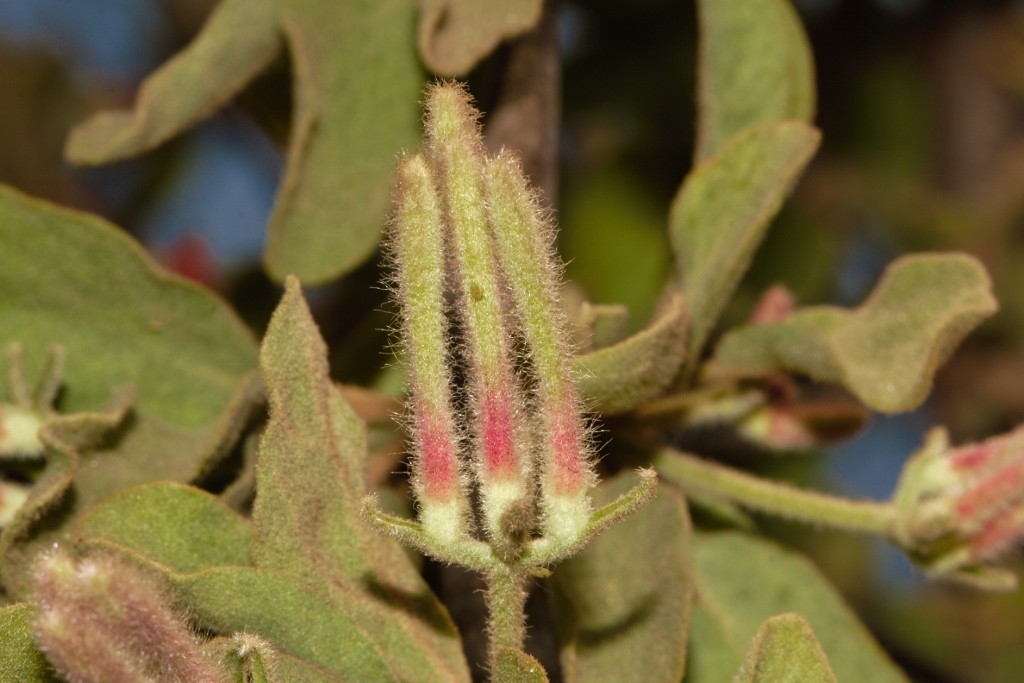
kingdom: Plantae
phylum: Tracheophyta
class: Magnoliopsida
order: Santalales
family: Loranthaceae
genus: Erianthemum
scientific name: Erianthemum virescens
